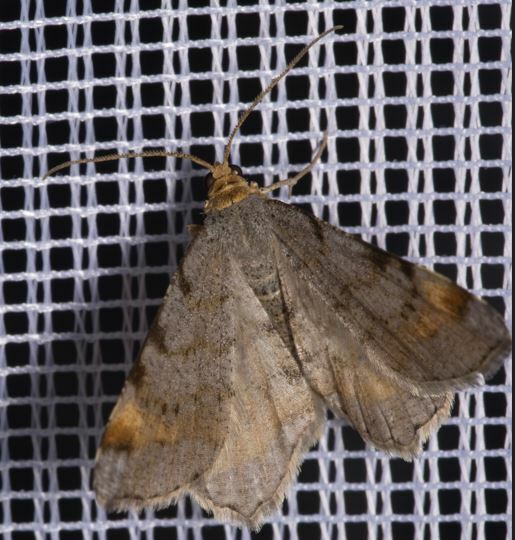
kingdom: Animalia
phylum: Arthropoda
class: Insecta
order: Lepidoptera
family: Geometridae
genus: Macaria
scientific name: Macaria liturata
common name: Tawny-barred angle
